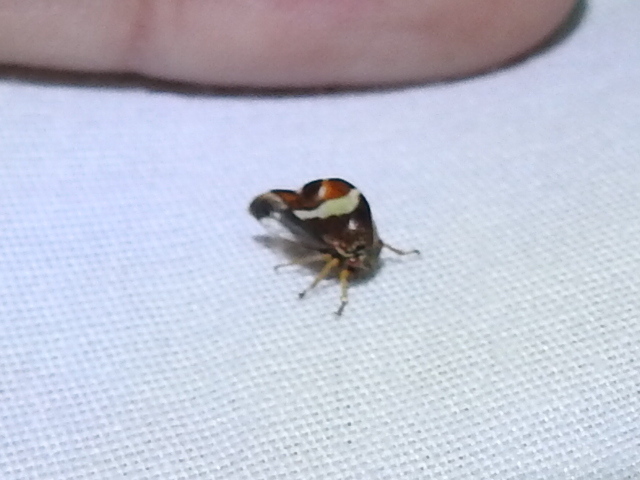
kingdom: Animalia
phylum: Arthropoda
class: Insecta
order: Hemiptera
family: Membracidae
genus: Smilia
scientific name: Smilia fasciata
